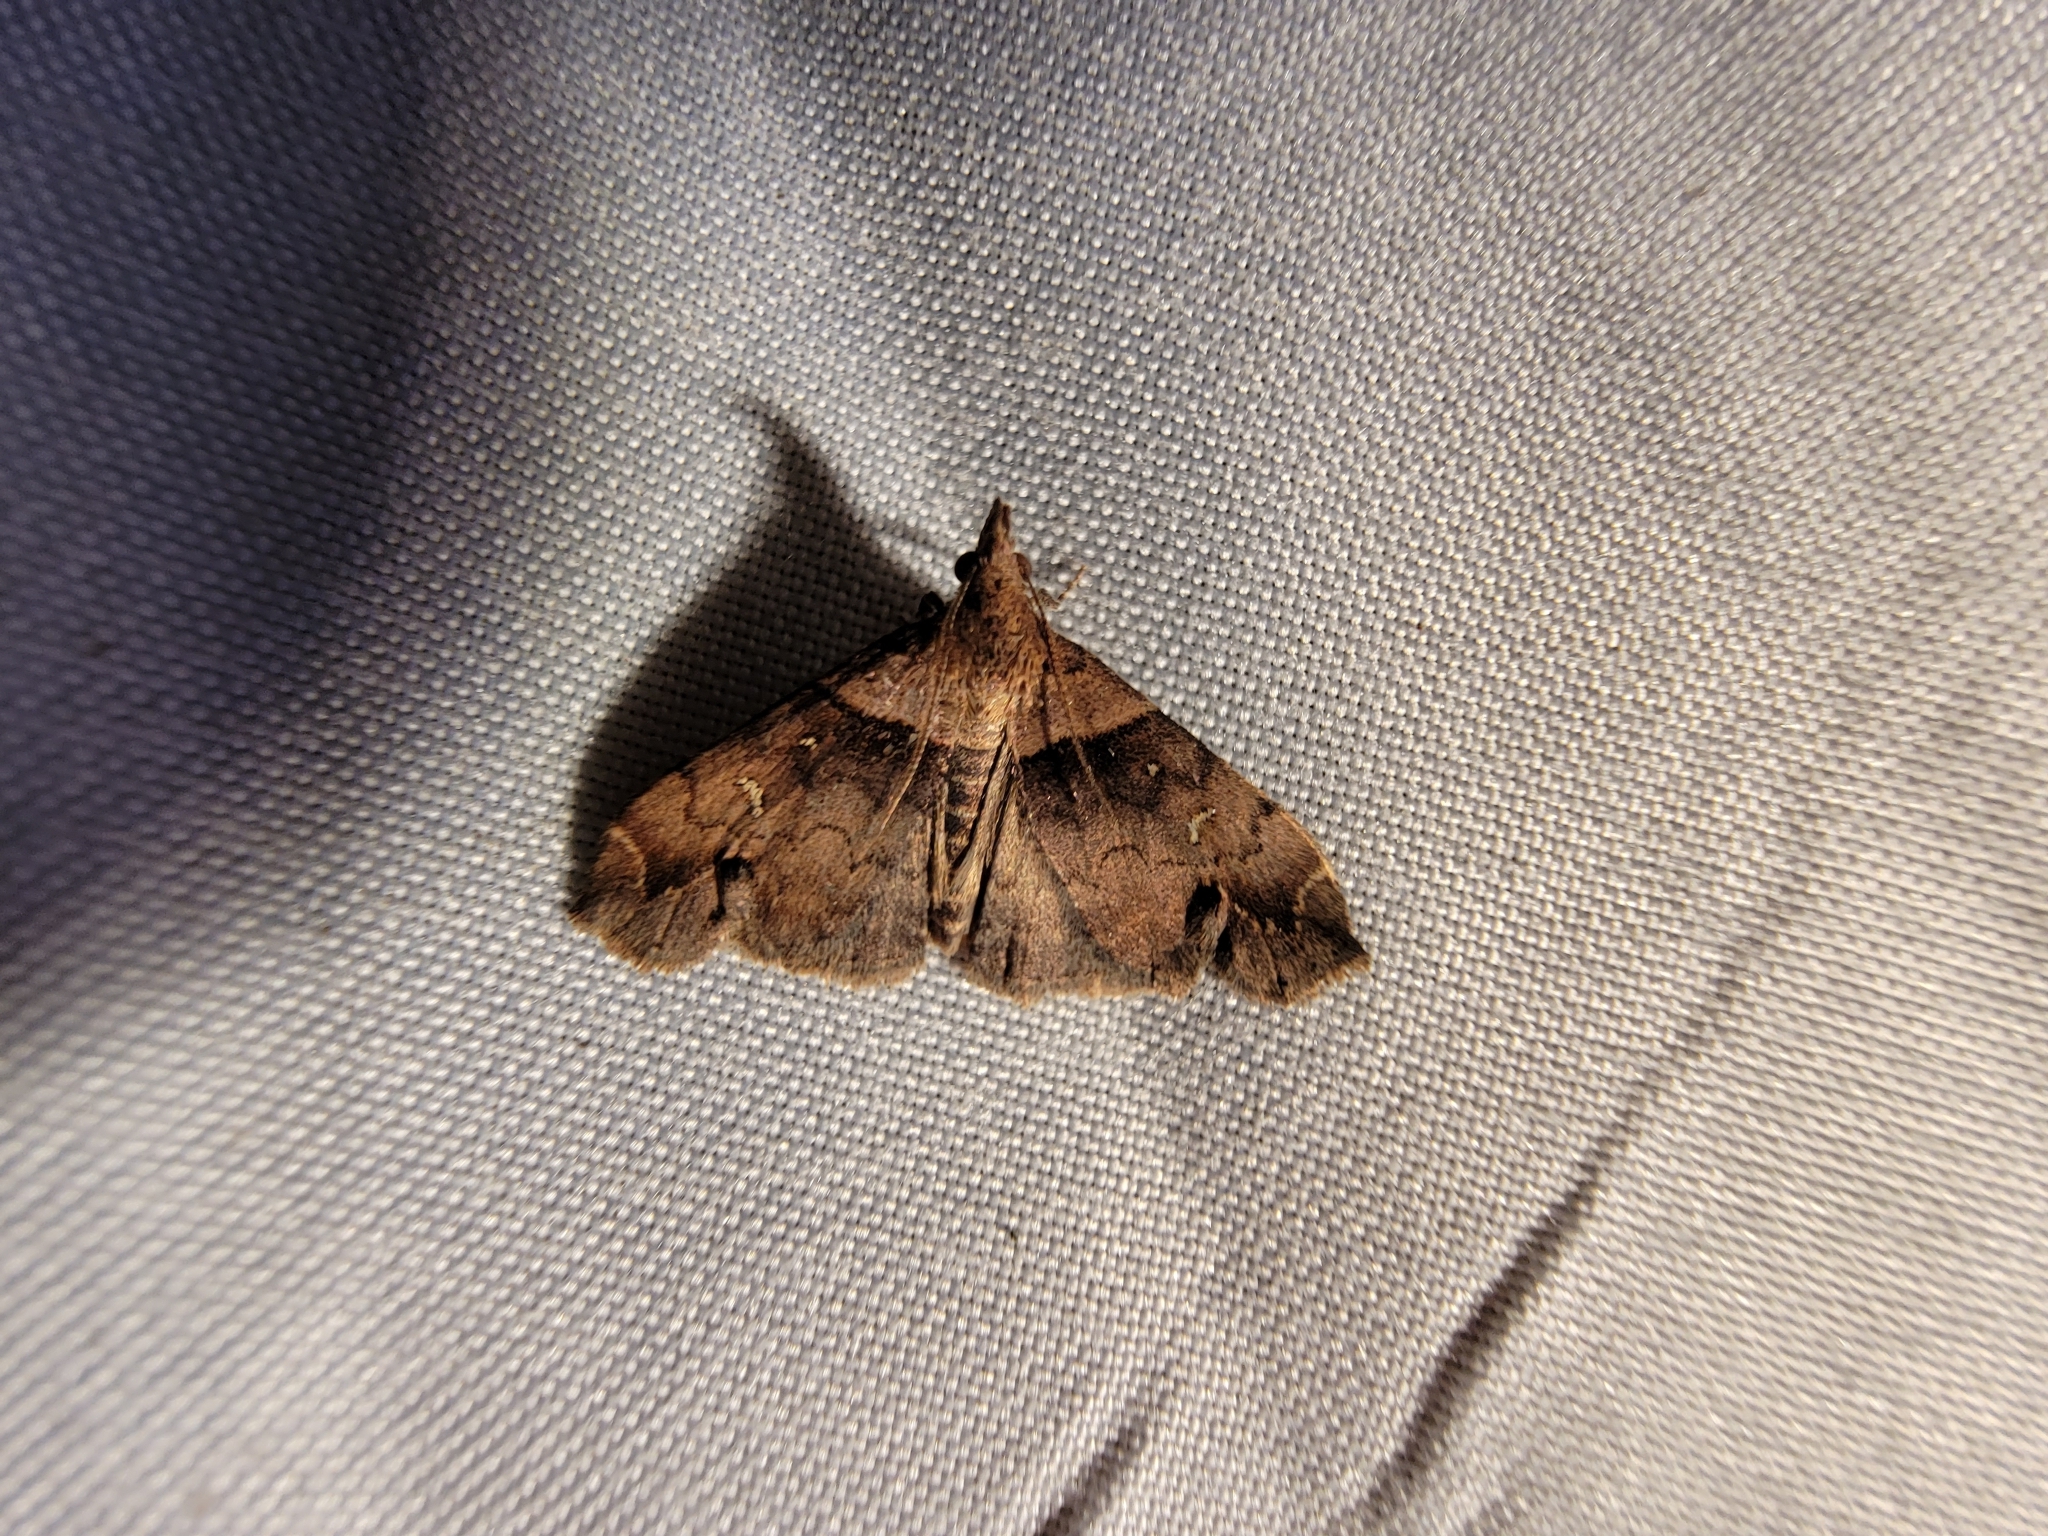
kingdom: Animalia
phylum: Arthropoda
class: Insecta
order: Lepidoptera
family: Erebidae
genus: Lascoria
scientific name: Lascoria ambigualis
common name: Ambiguous moth
